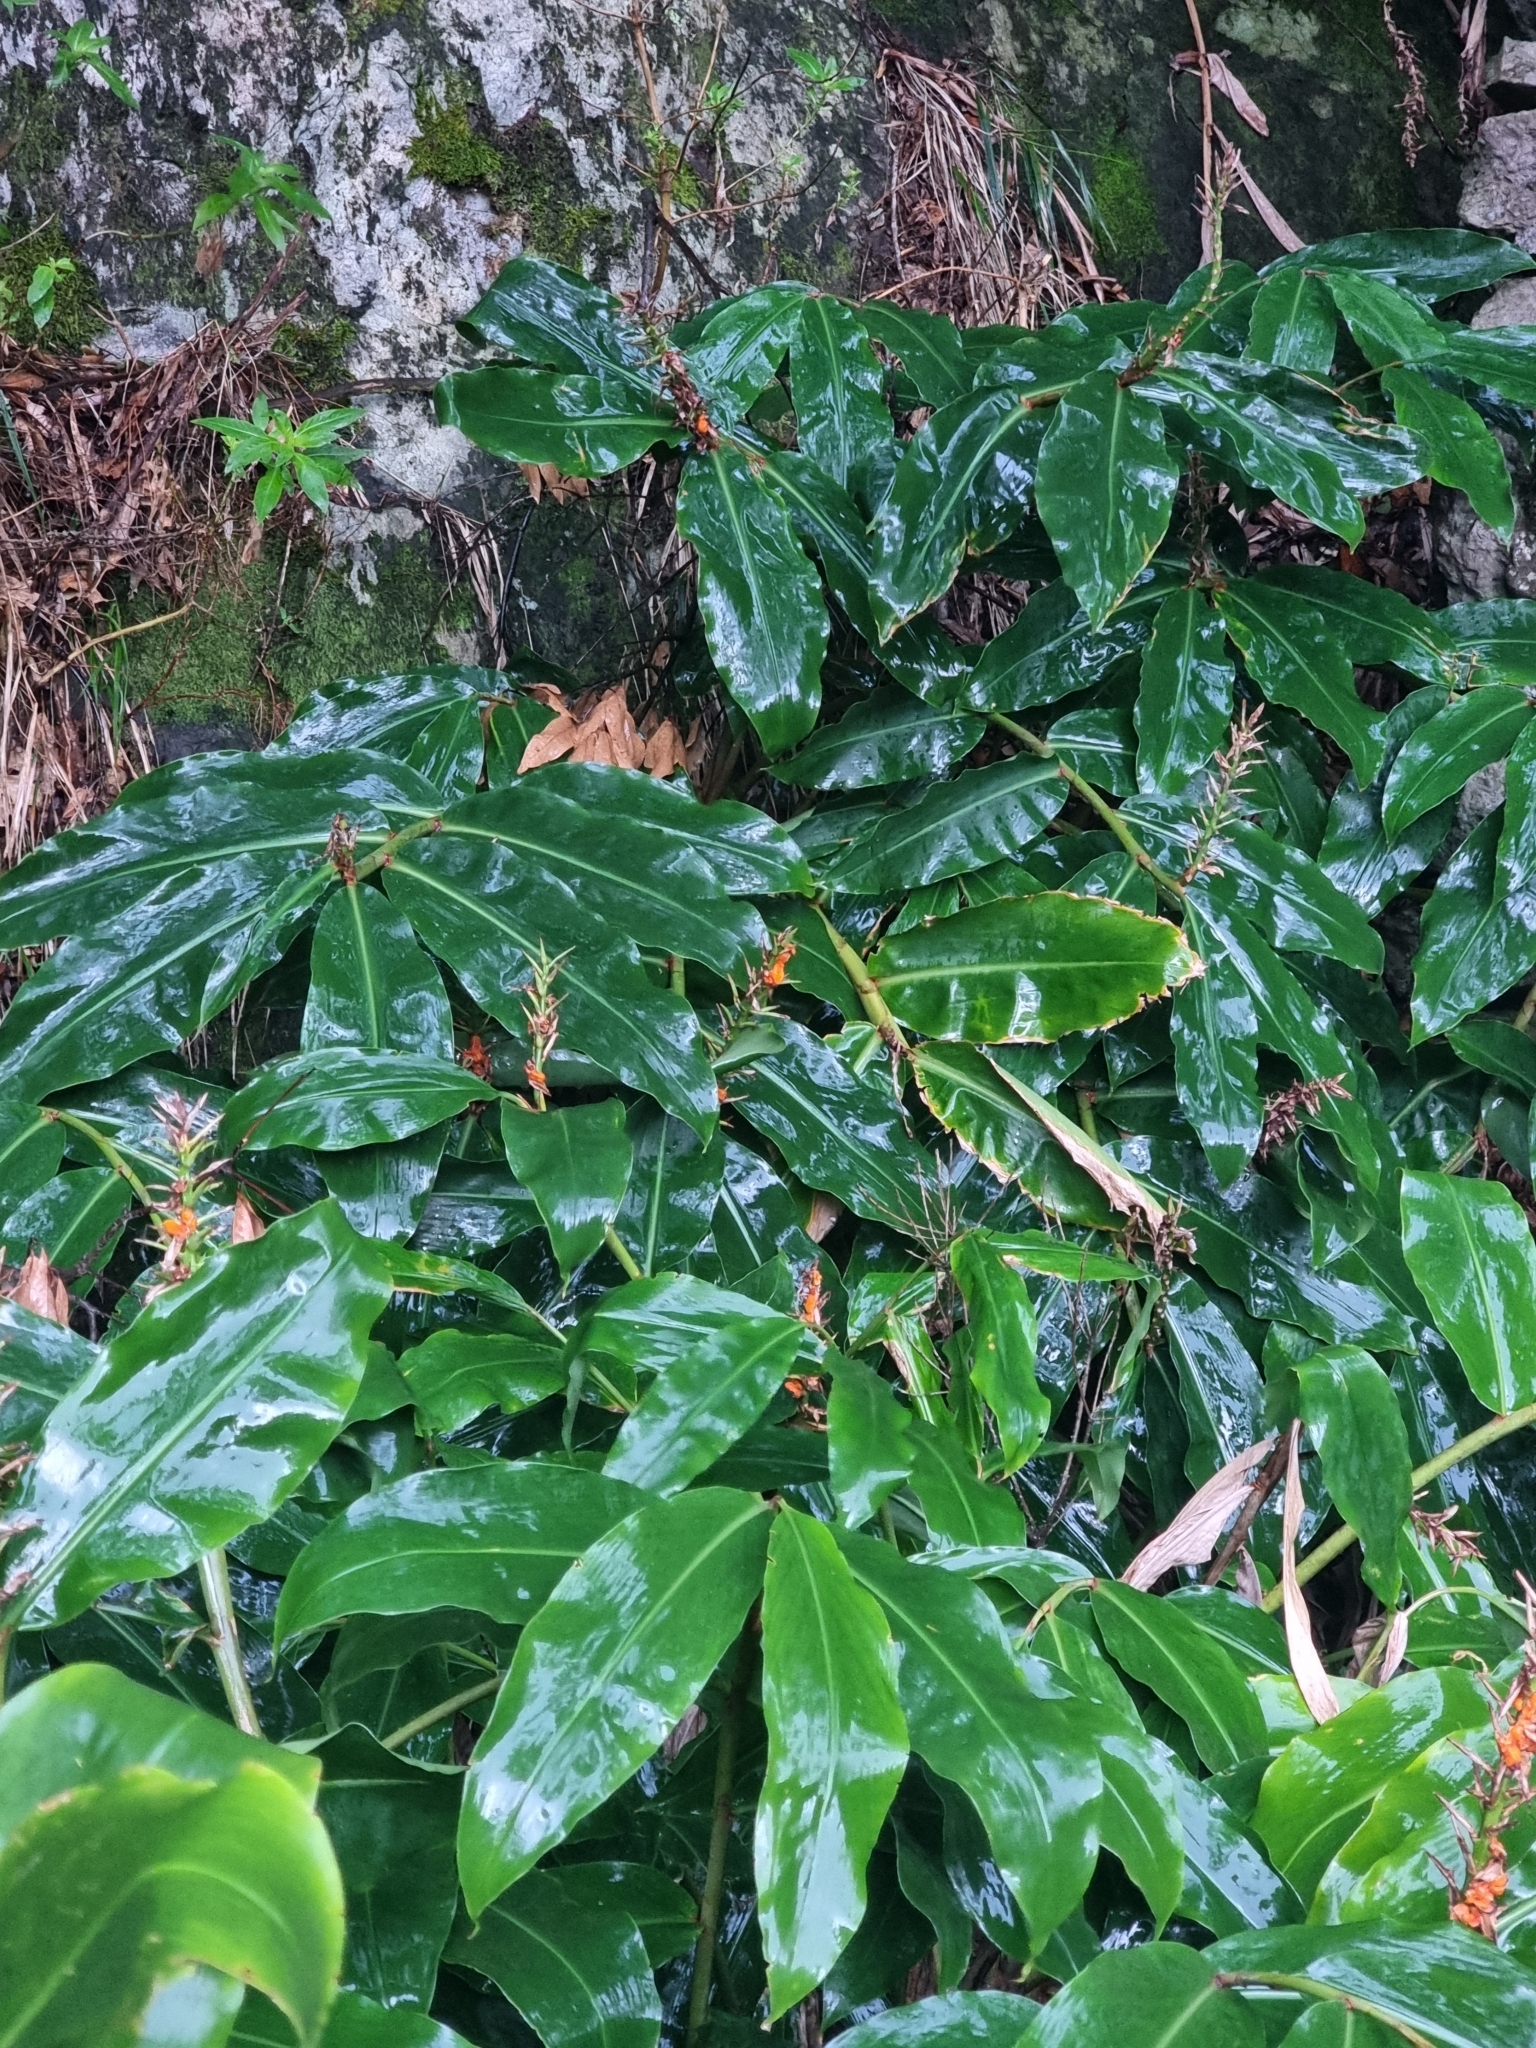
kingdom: Plantae
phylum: Tracheophyta
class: Liliopsida
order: Zingiberales
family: Zingiberaceae
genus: Hedychium
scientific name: Hedychium gardnerianum
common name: Himalayan ginger
